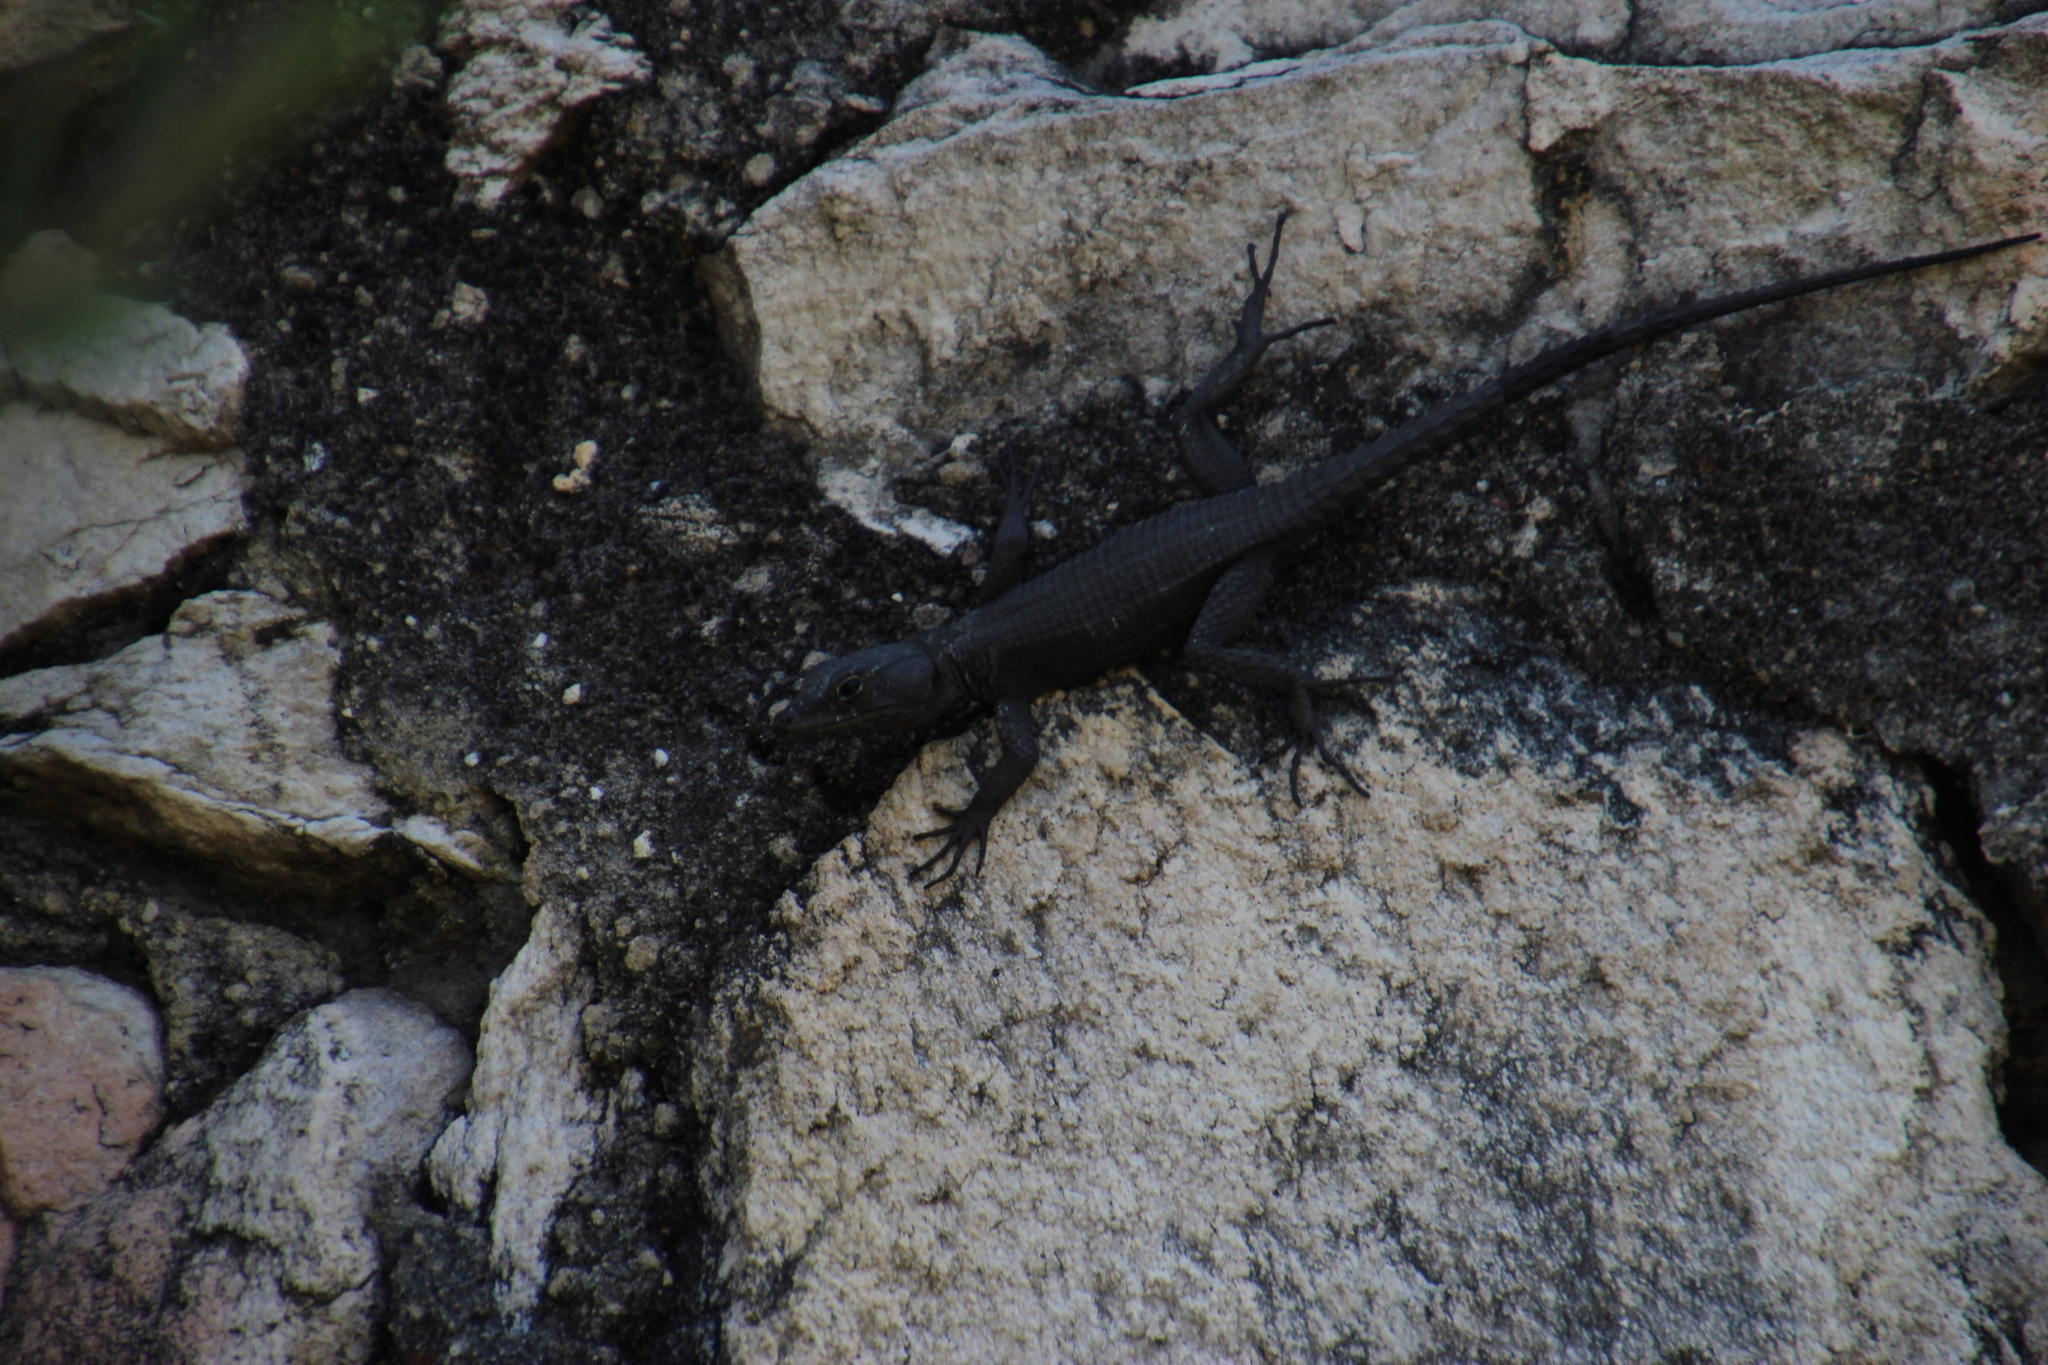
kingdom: Animalia
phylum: Chordata
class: Squamata
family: Cordylidae
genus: Hemicordylus
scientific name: Hemicordylus capensis
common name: Graceful crag lizard
